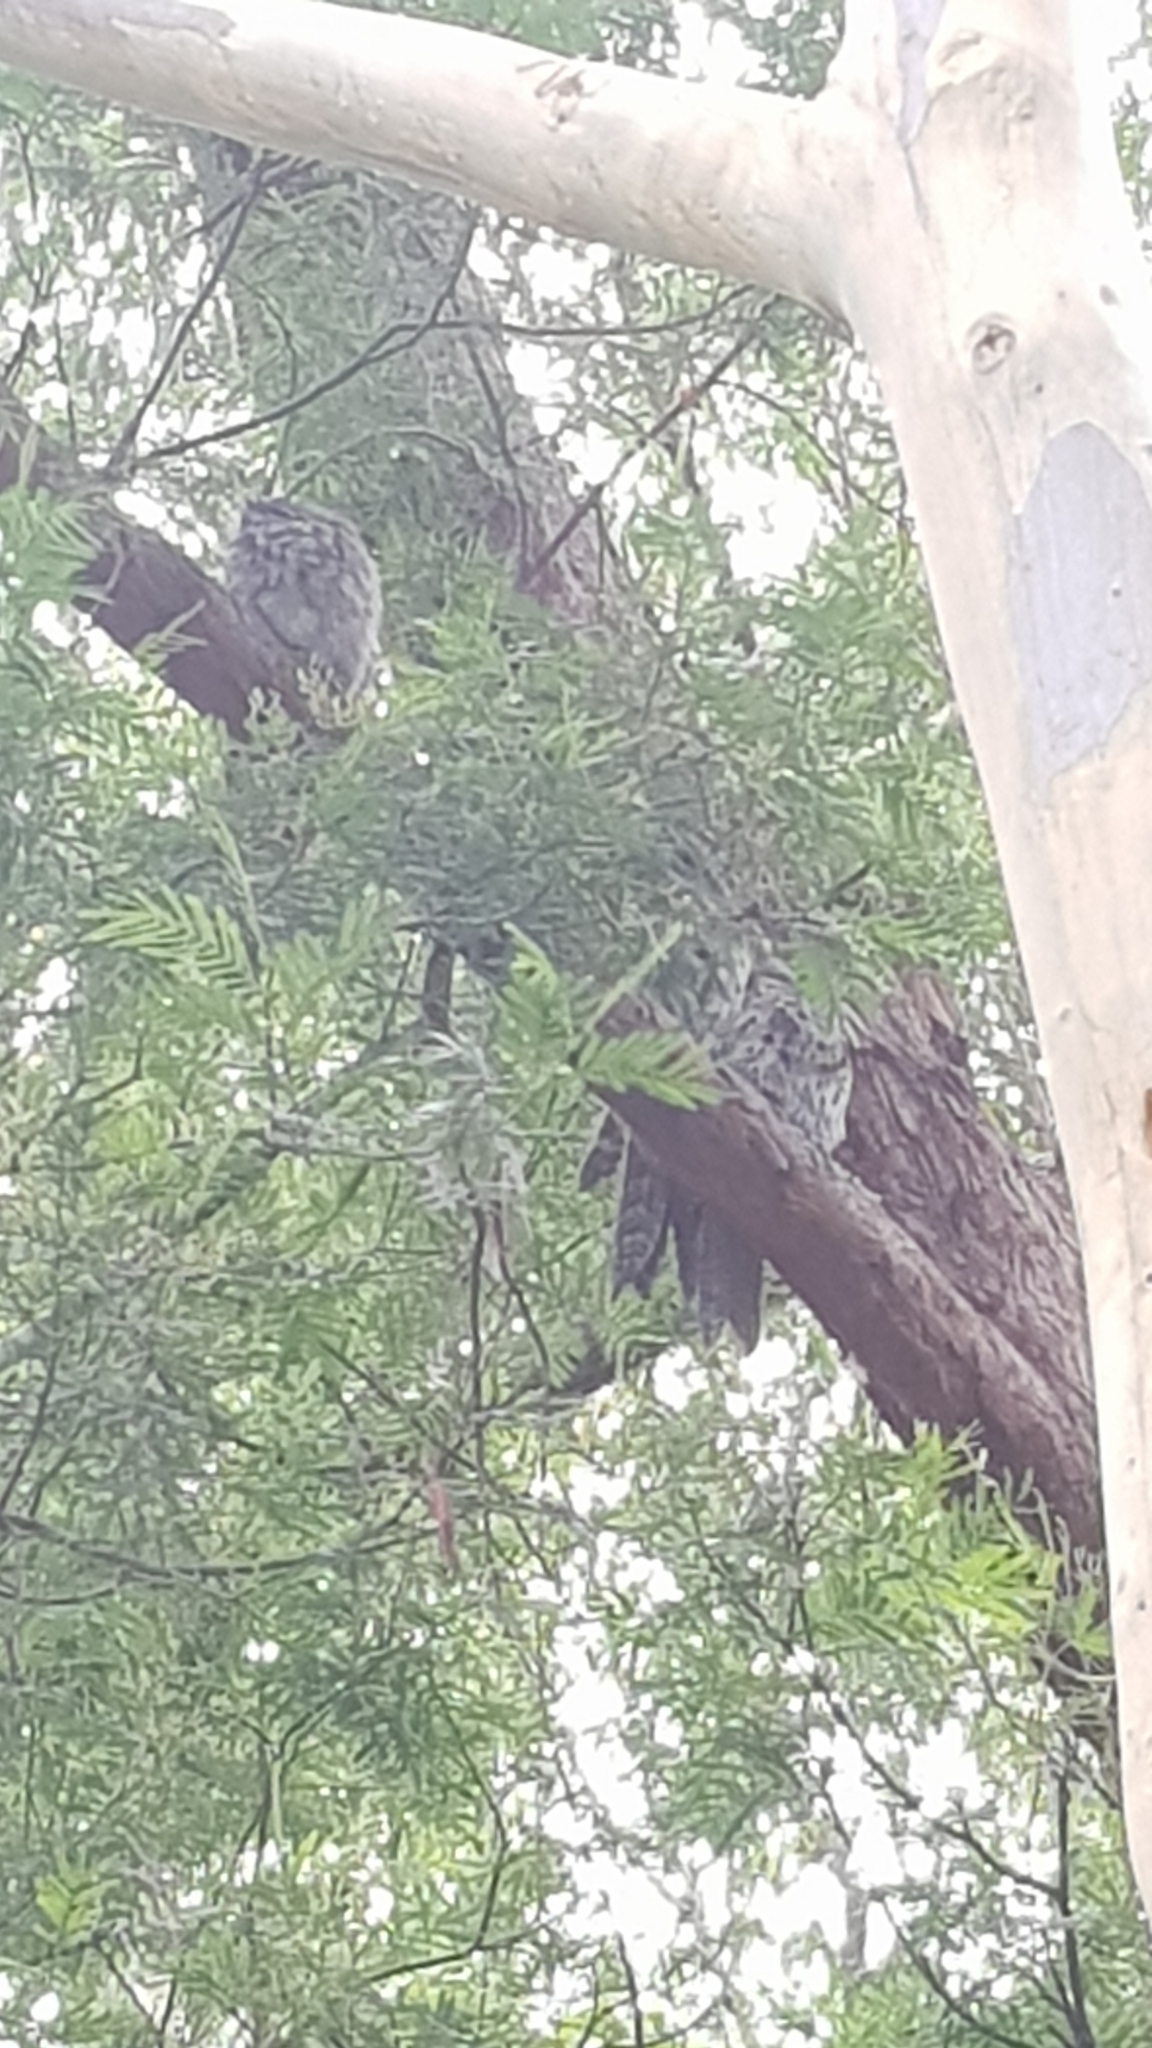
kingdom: Animalia
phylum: Chordata
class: Aves
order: Caprimulgiformes
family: Podargidae
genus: Podargus
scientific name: Podargus strigoides
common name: Tawny frogmouth
